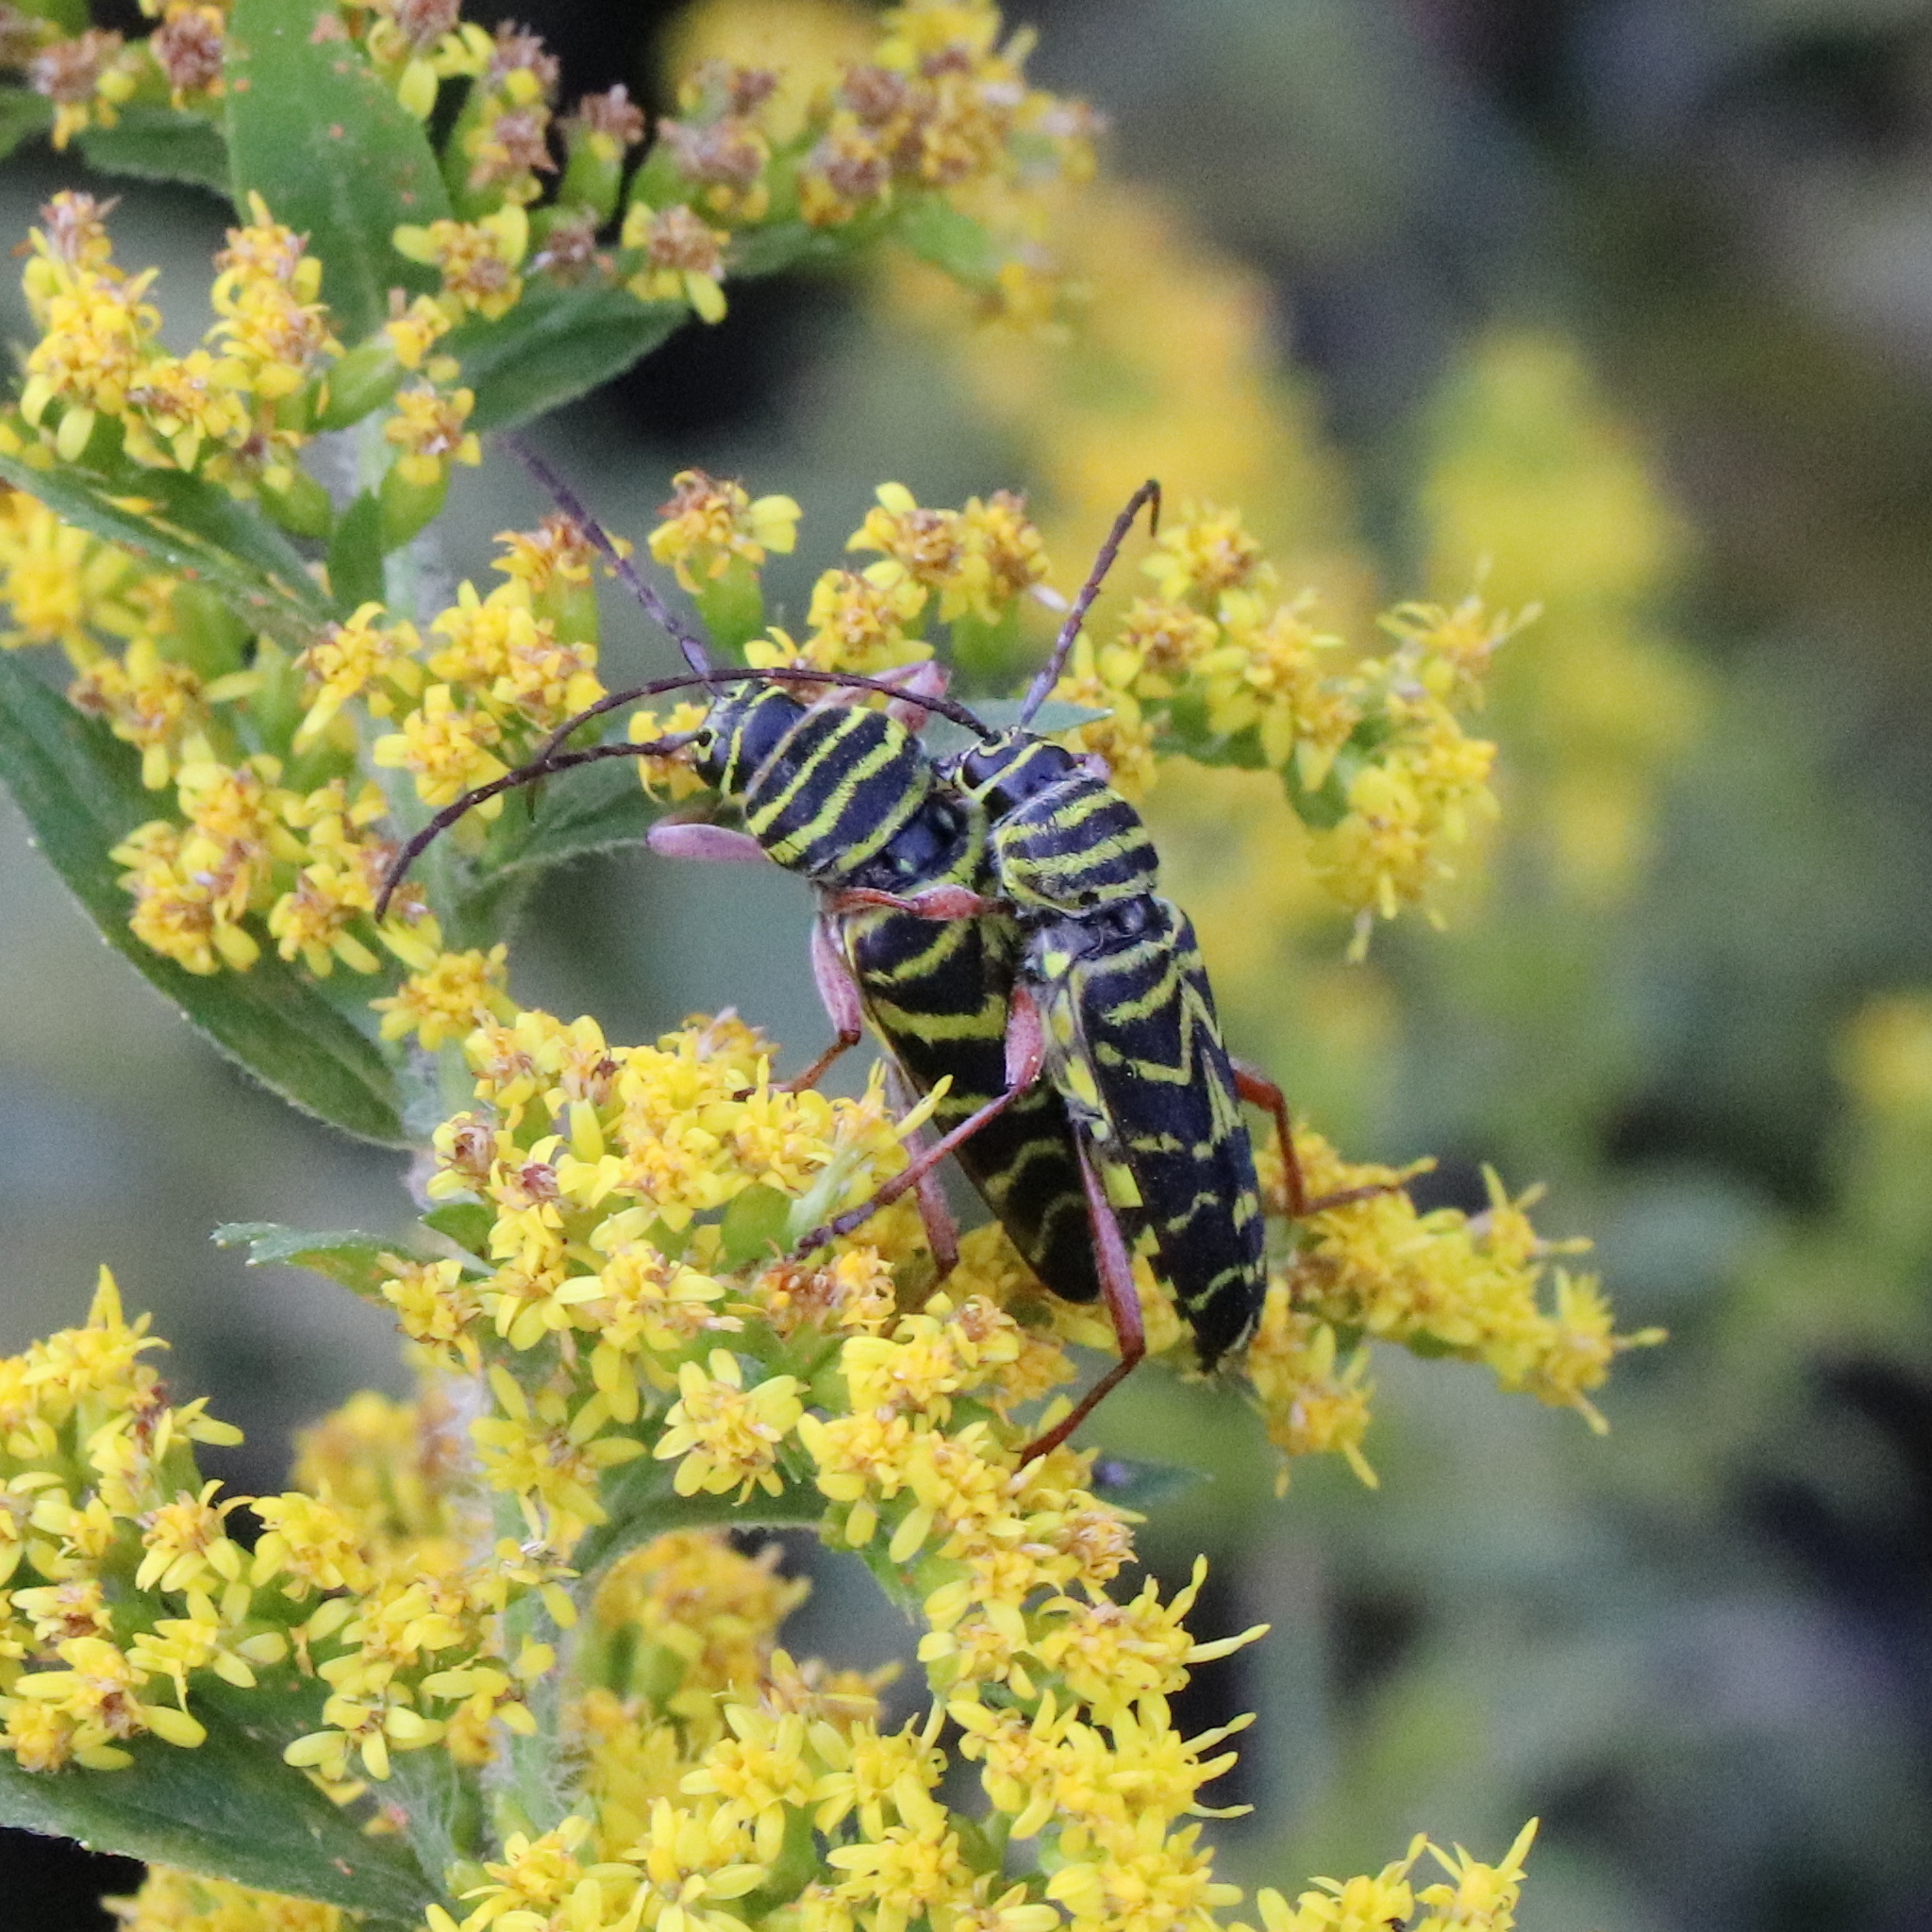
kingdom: Animalia
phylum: Arthropoda
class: Insecta
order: Coleoptera
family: Cerambycidae
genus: Megacyllene
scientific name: Megacyllene robiniae
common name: Locust borer
